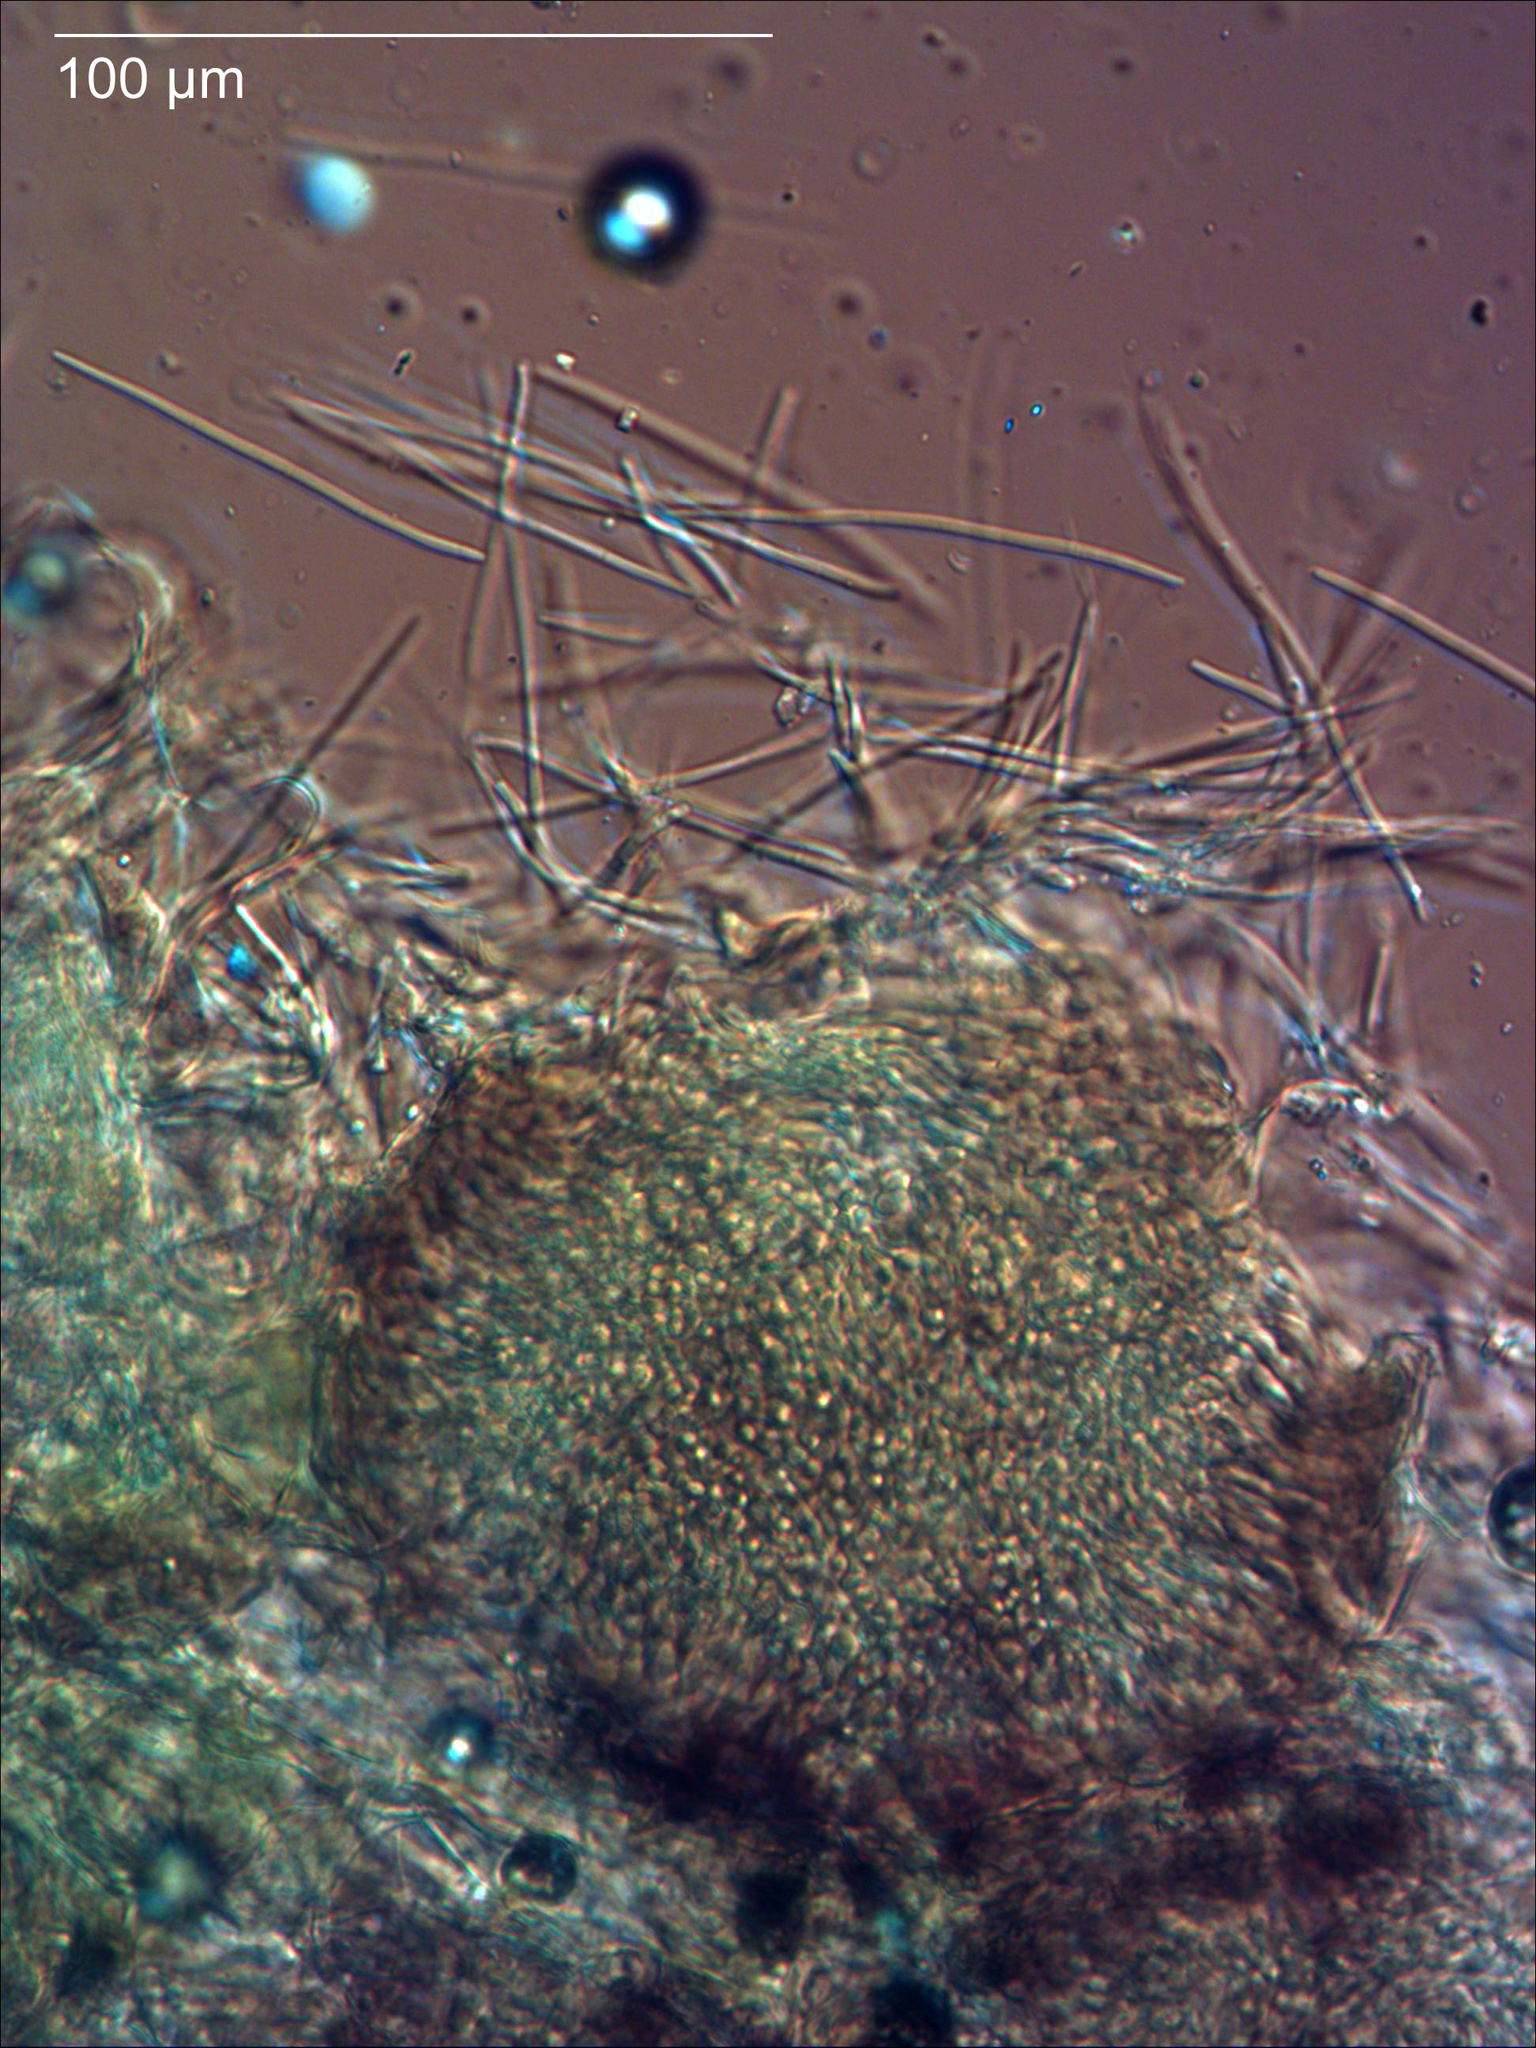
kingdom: Fungi
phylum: Ascomycota
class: Dothideomycetes
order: Mycosphaerellales
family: Mycosphaerellaceae
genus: Septoria
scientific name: Septoria stellariae
